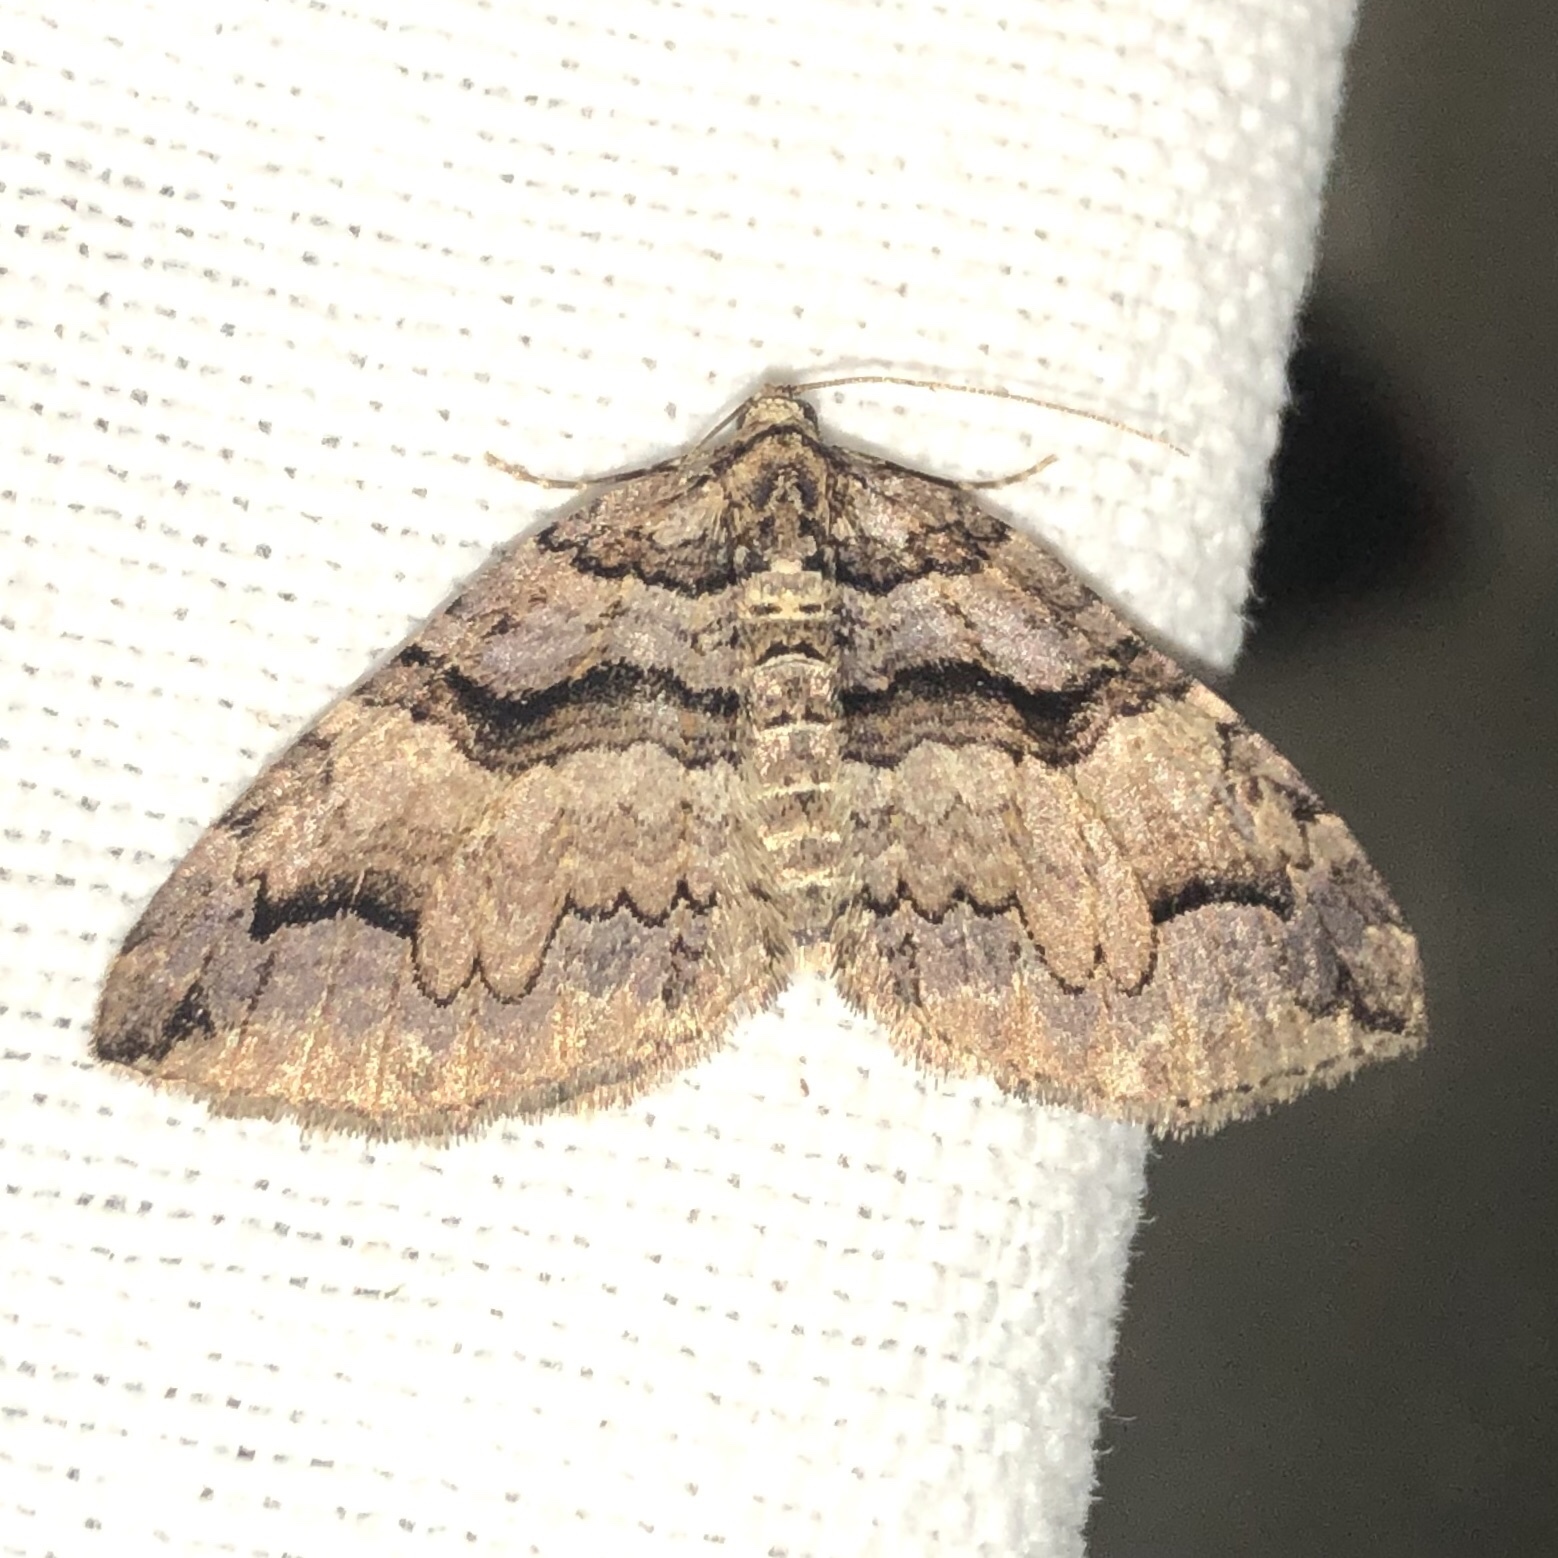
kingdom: Animalia
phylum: Arthropoda
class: Insecta
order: Lepidoptera
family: Geometridae
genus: Anticlea
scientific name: Anticlea vasiliata
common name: Variable carpet
